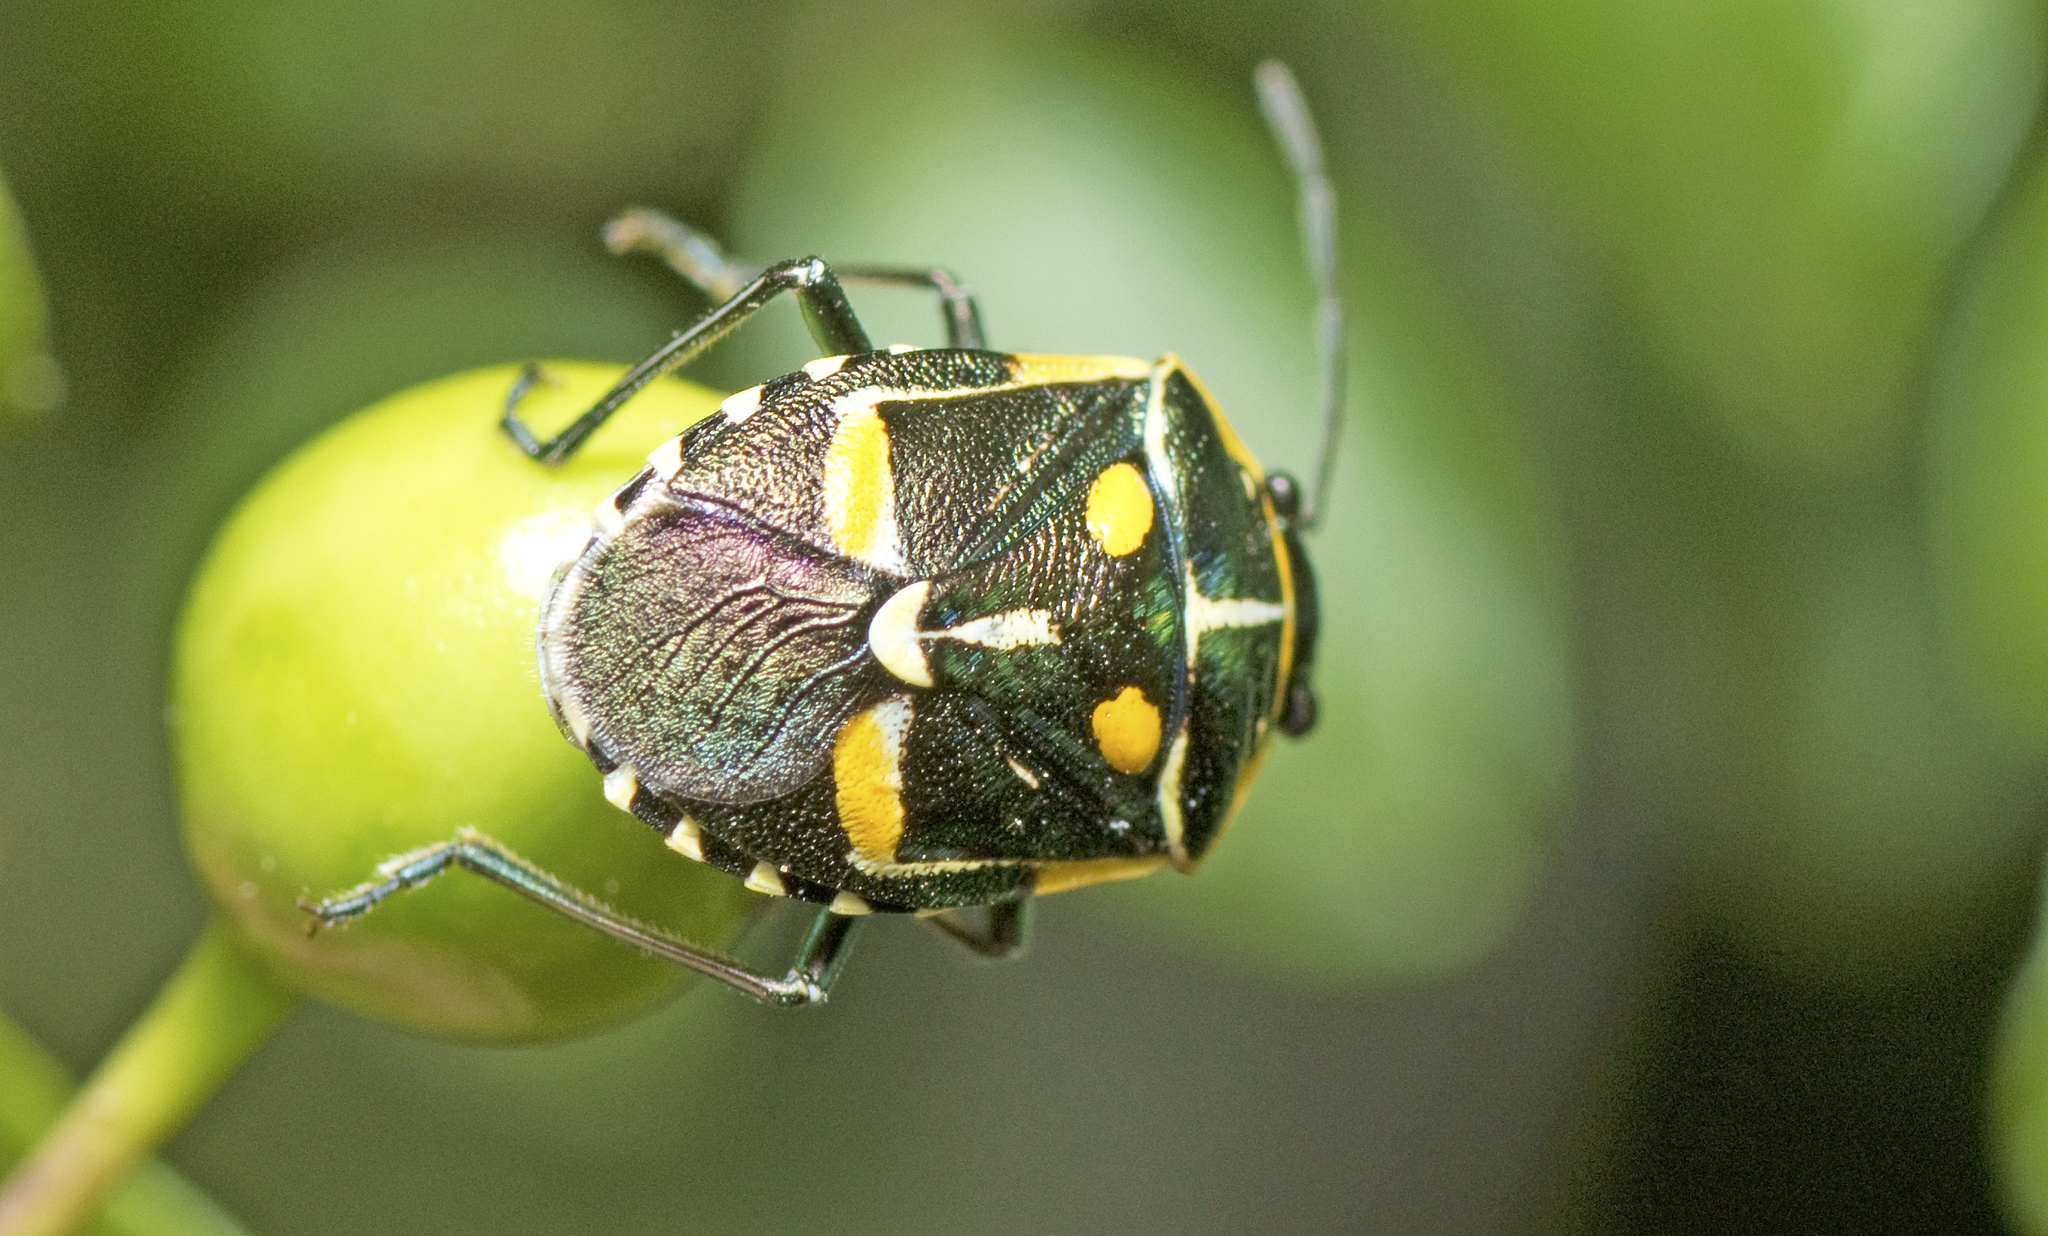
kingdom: Animalia
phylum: Arthropoda
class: Insecta
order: Hemiptera
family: Pentatomidae
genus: Grossiana
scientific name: Grossiana
